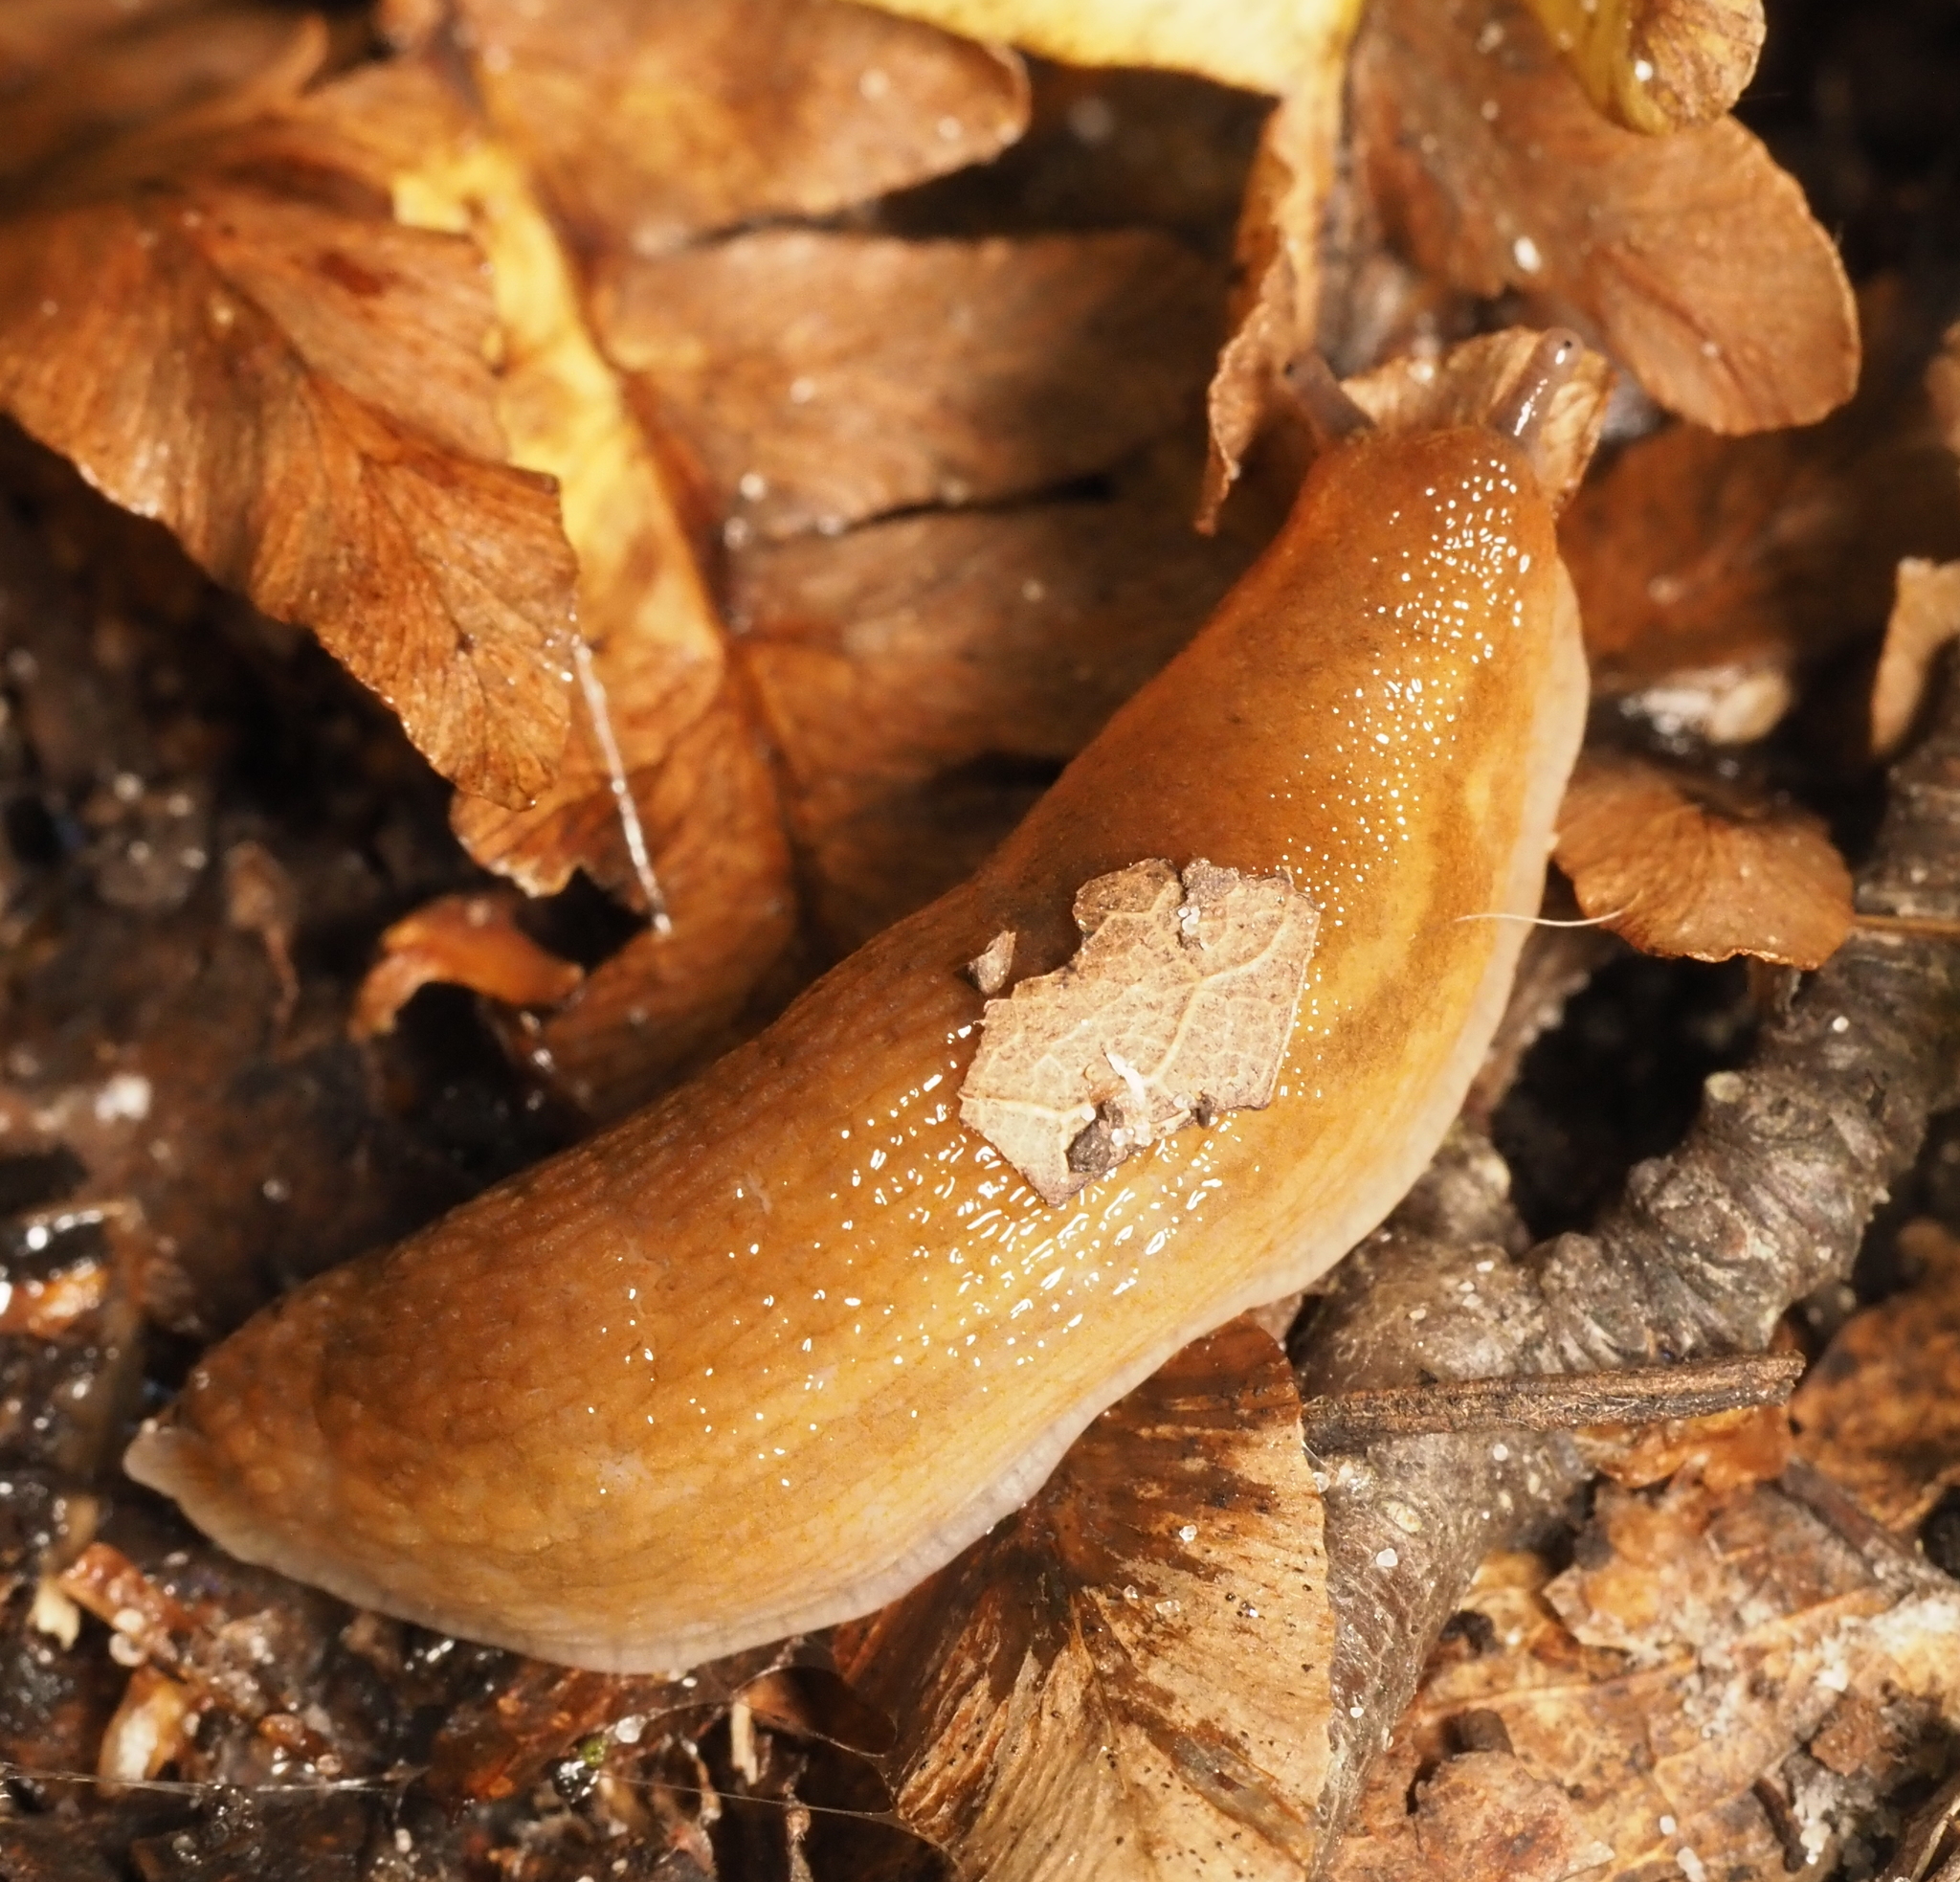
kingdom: Animalia
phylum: Mollusca
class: Gastropoda
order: Stylommatophora
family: Arionidae
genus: Arion
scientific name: Arion subfuscus
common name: Dusky arion
